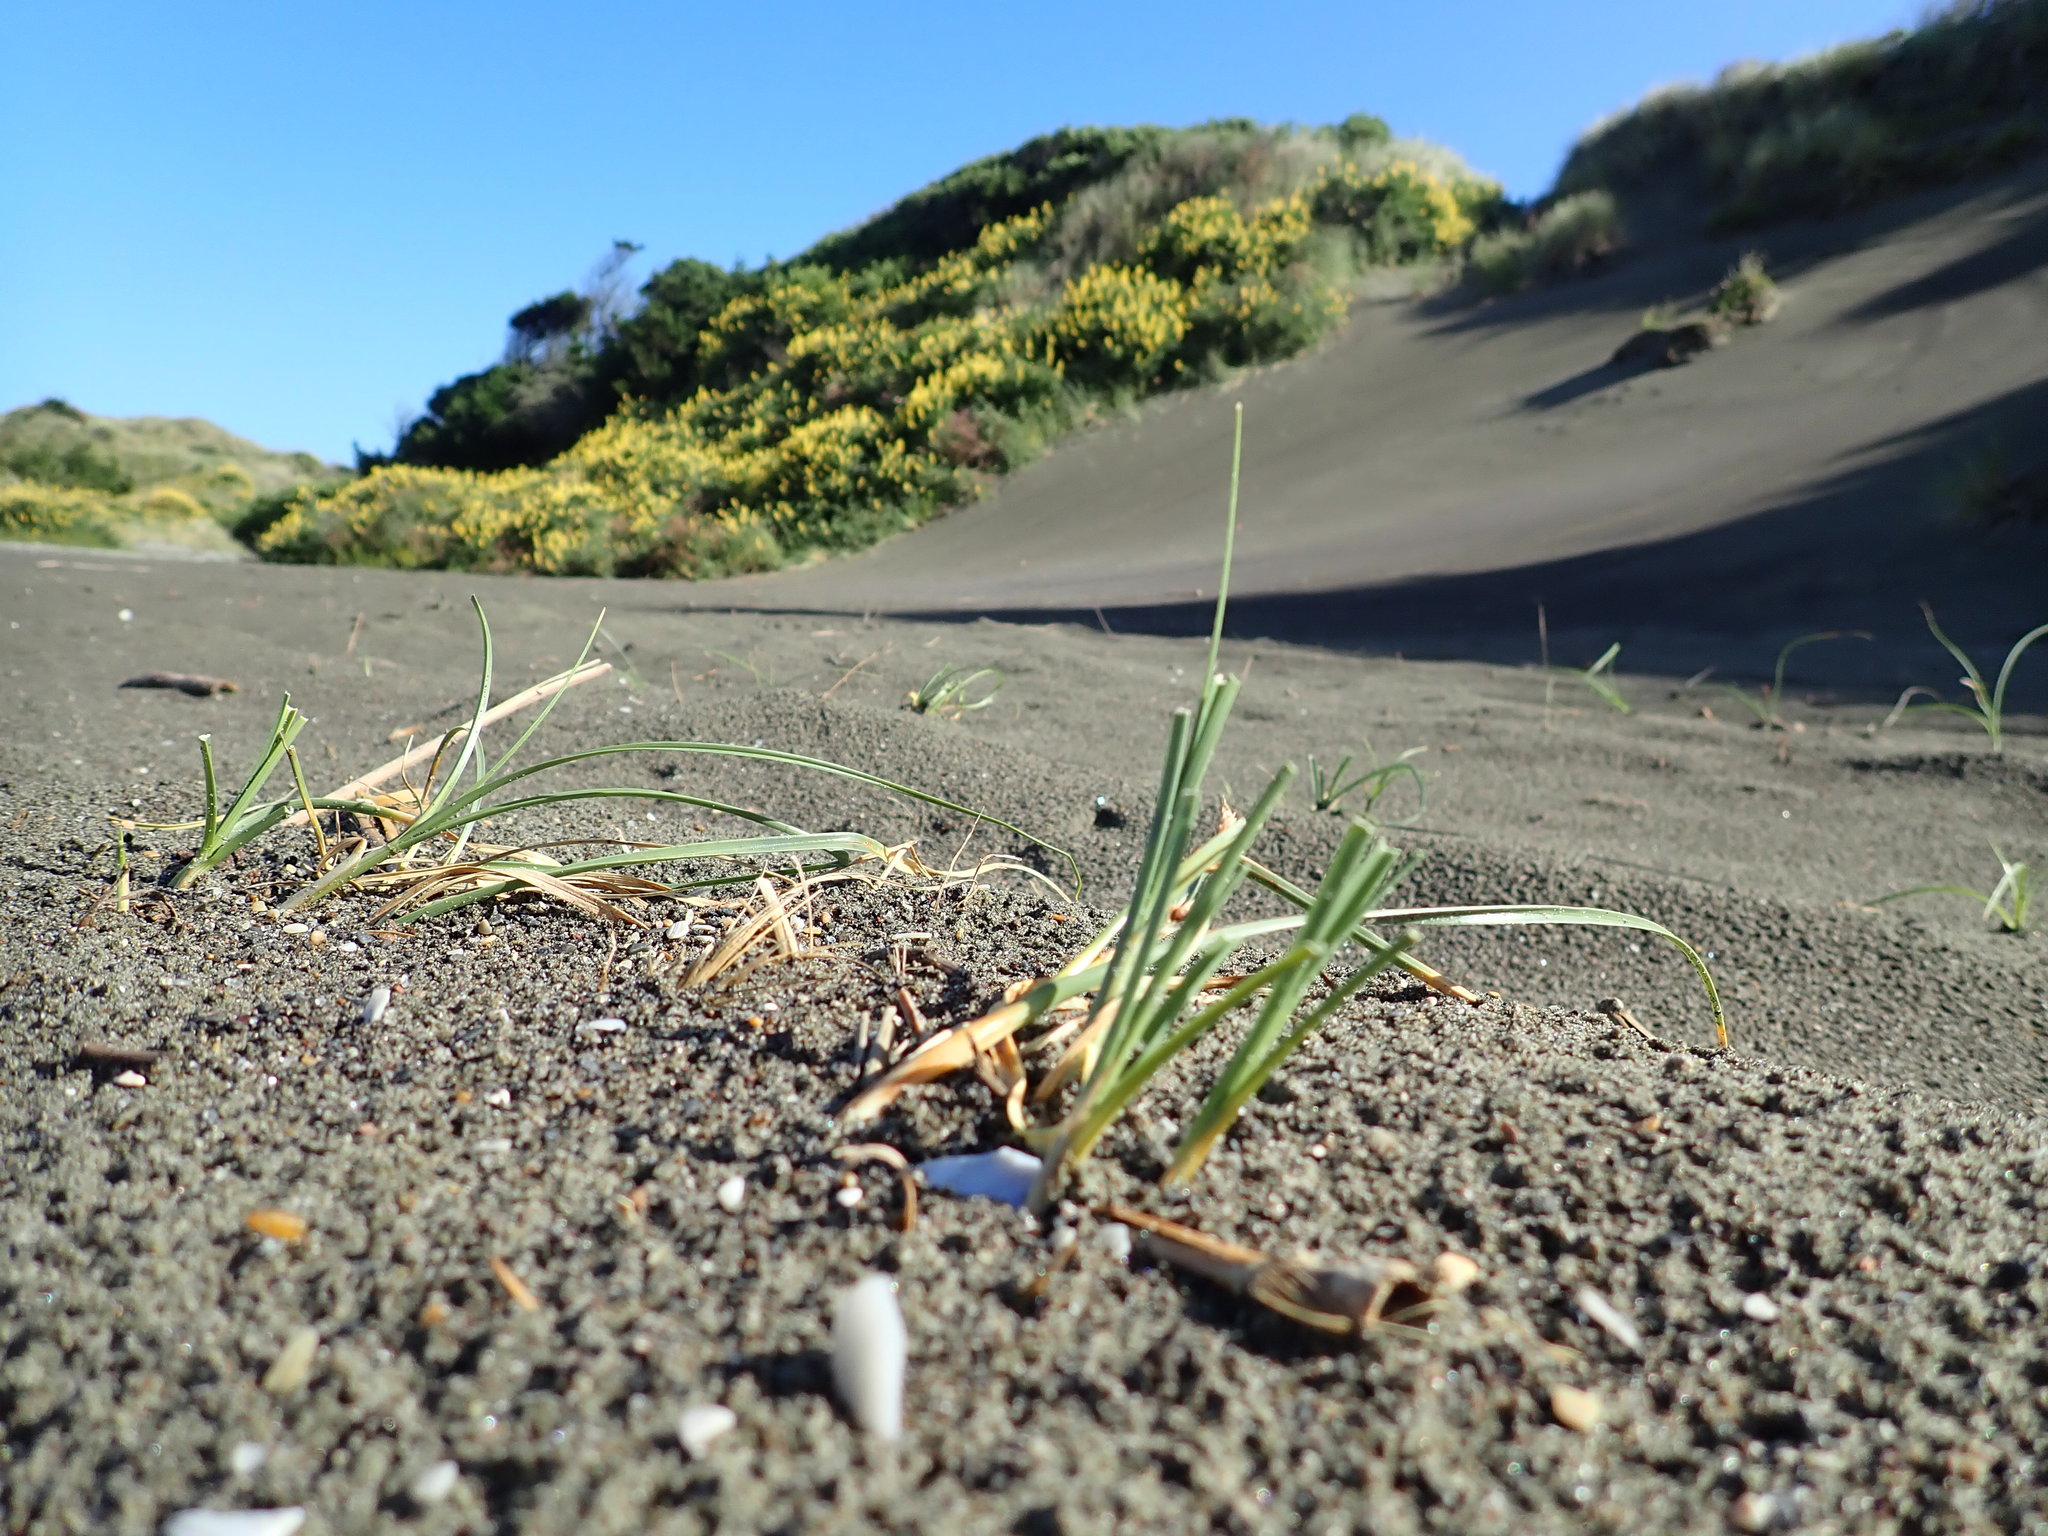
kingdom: Plantae
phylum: Tracheophyta
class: Liliopsida
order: Poales
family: Cyperaceae
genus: Carex
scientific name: Carex pumila
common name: Dwarf sedge
